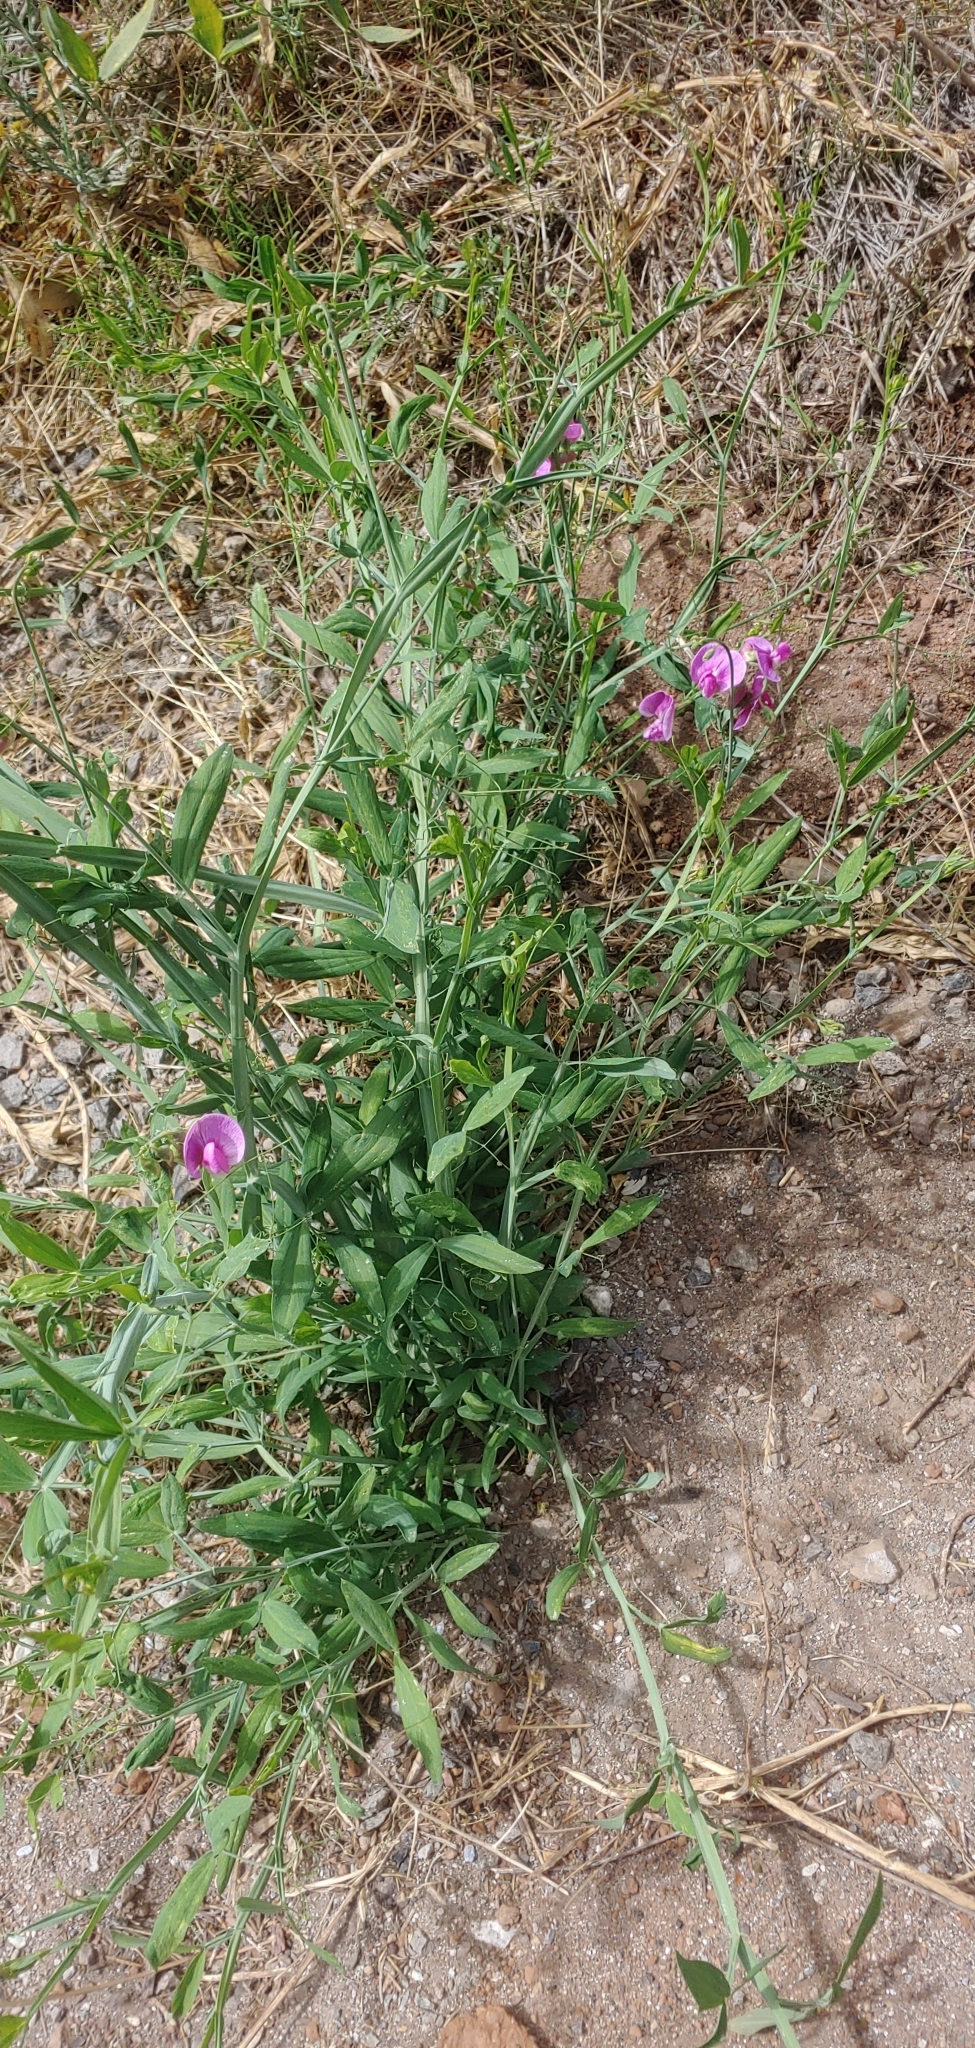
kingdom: Plantae
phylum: Tracheophyta
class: Magnoliopsida
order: Fabales
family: Fabaceae
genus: Lathyrus
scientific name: Lathyrus latifolius
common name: Perennial pea
